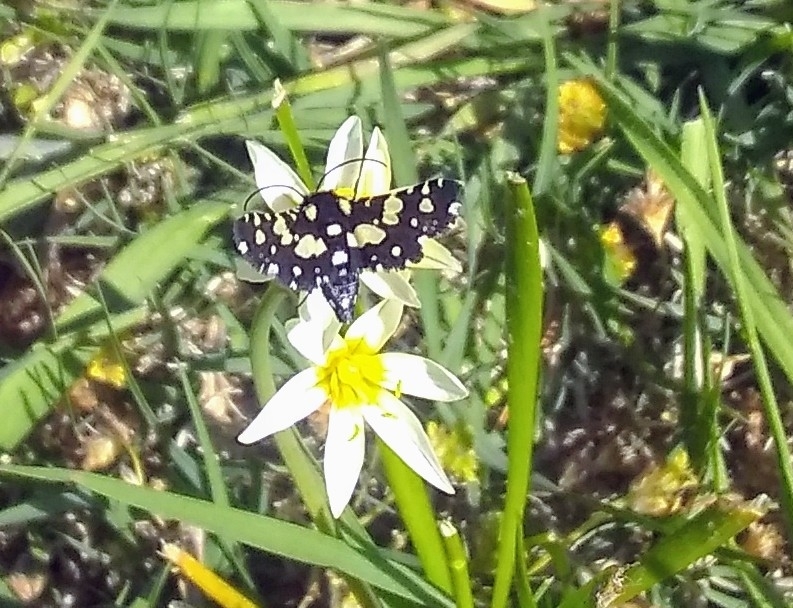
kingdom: Animalia
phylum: Arthropoda
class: Insecta
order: Lepidoptera
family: Thyrididae
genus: Pseudothyris
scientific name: Pseudothyris sepulchralis
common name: Mournful thyris moth
